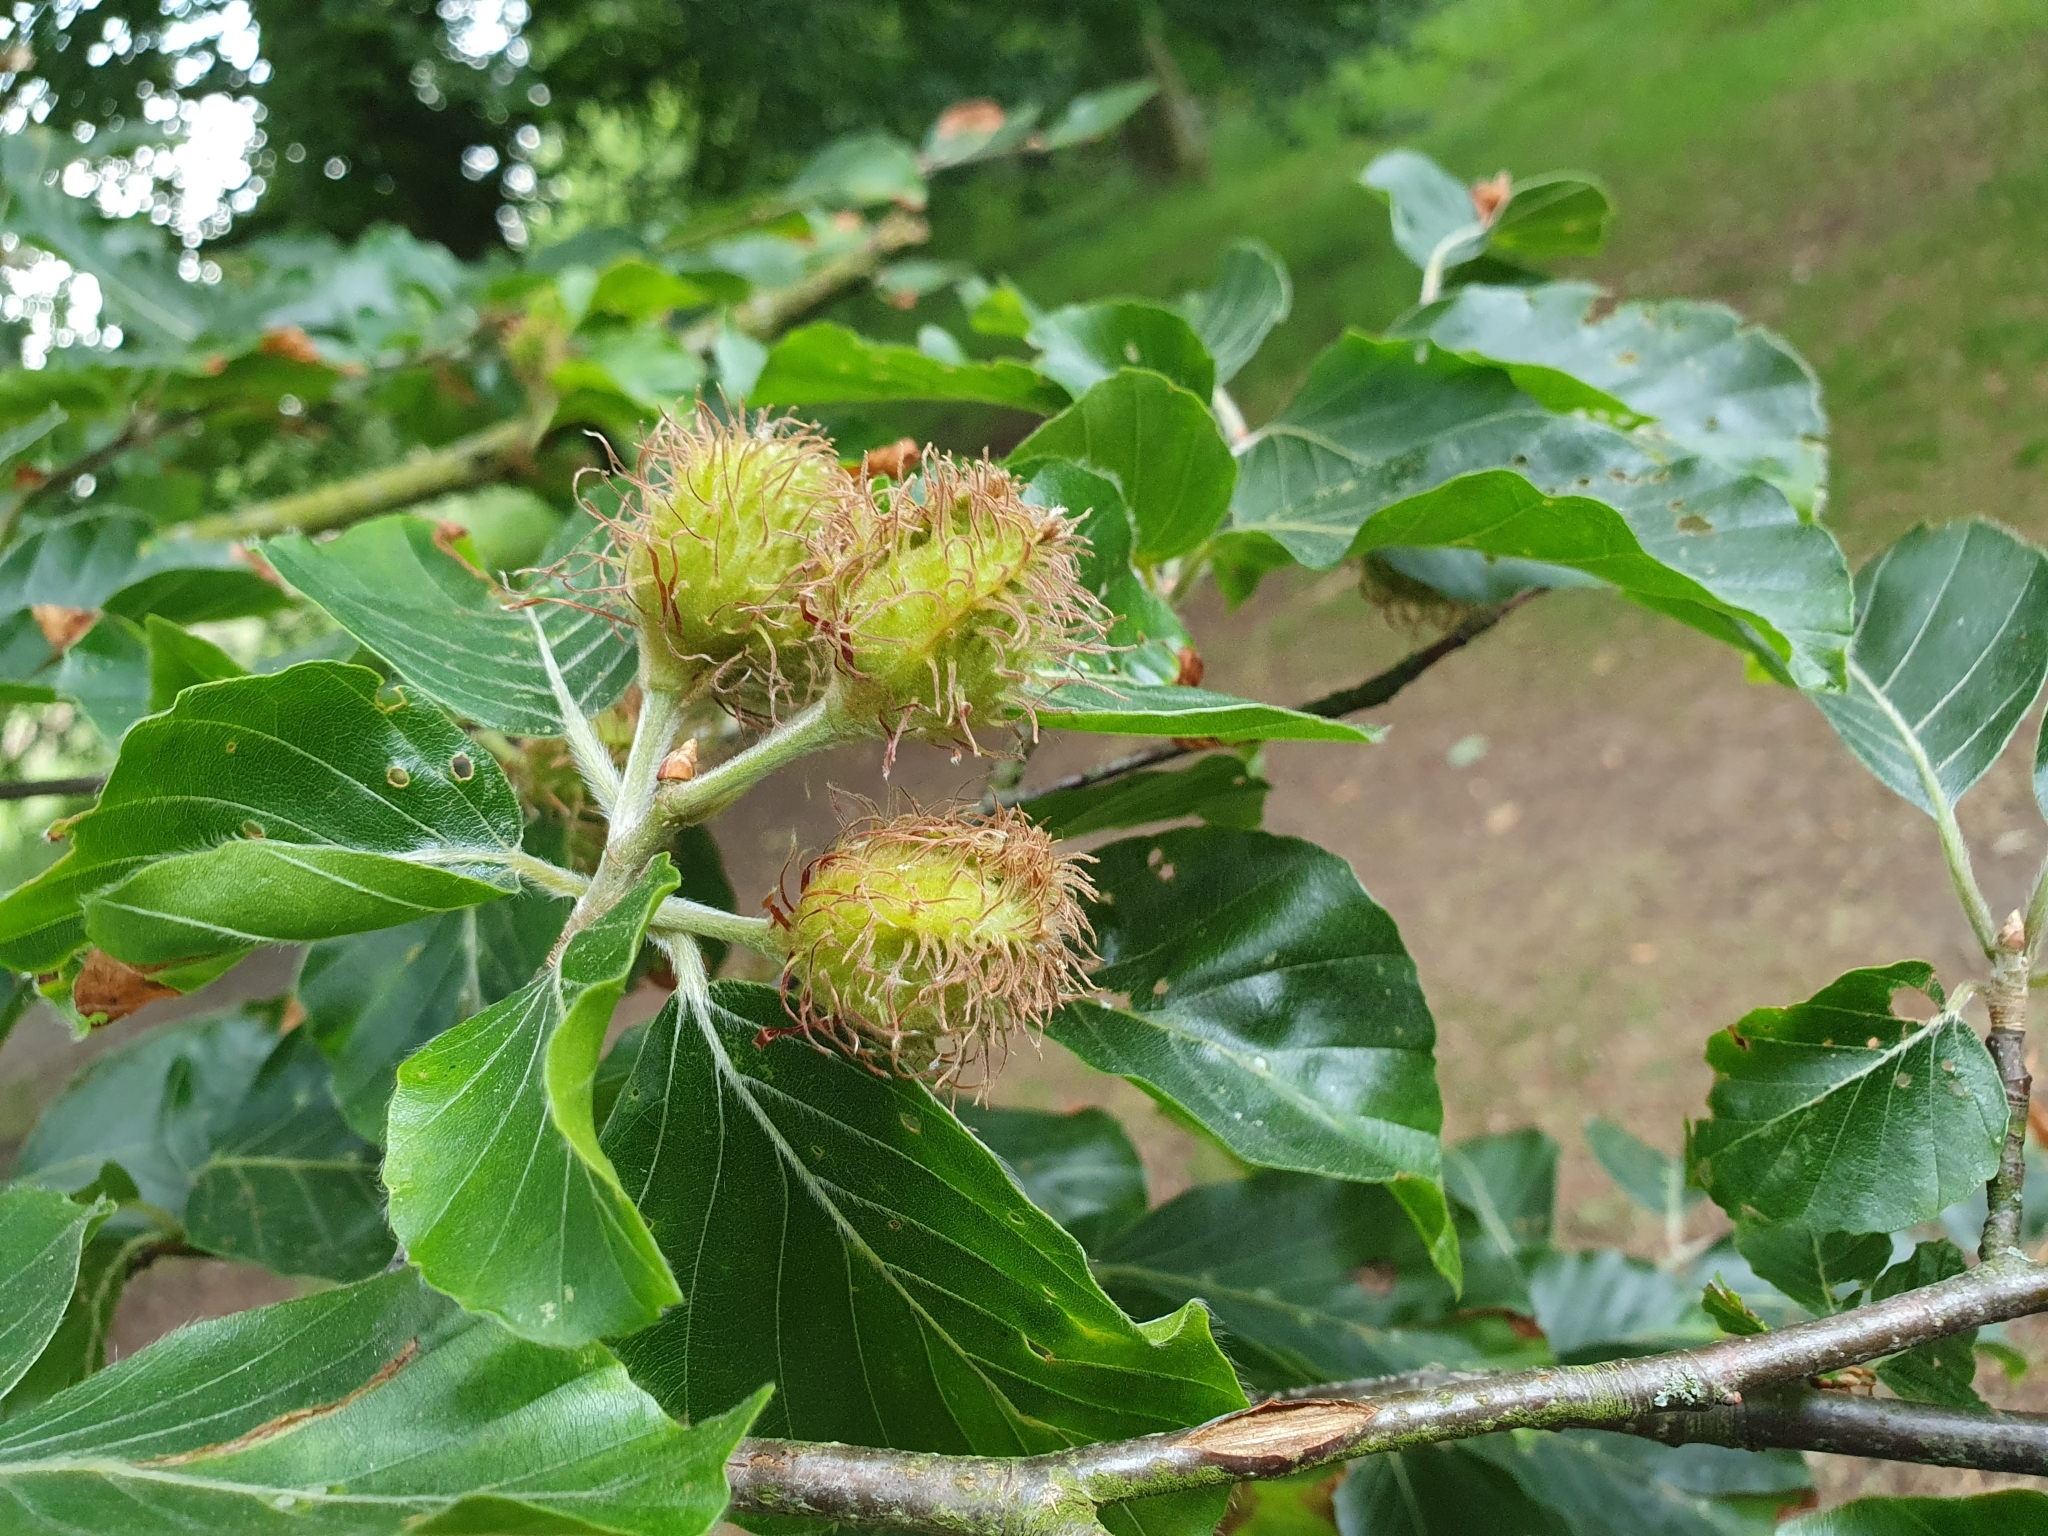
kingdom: Plantae
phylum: Tracheophyta
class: Magnoliopsida
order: Fagales
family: Fagaceae
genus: Fagus
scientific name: Fagus sylvatica
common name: Beech
